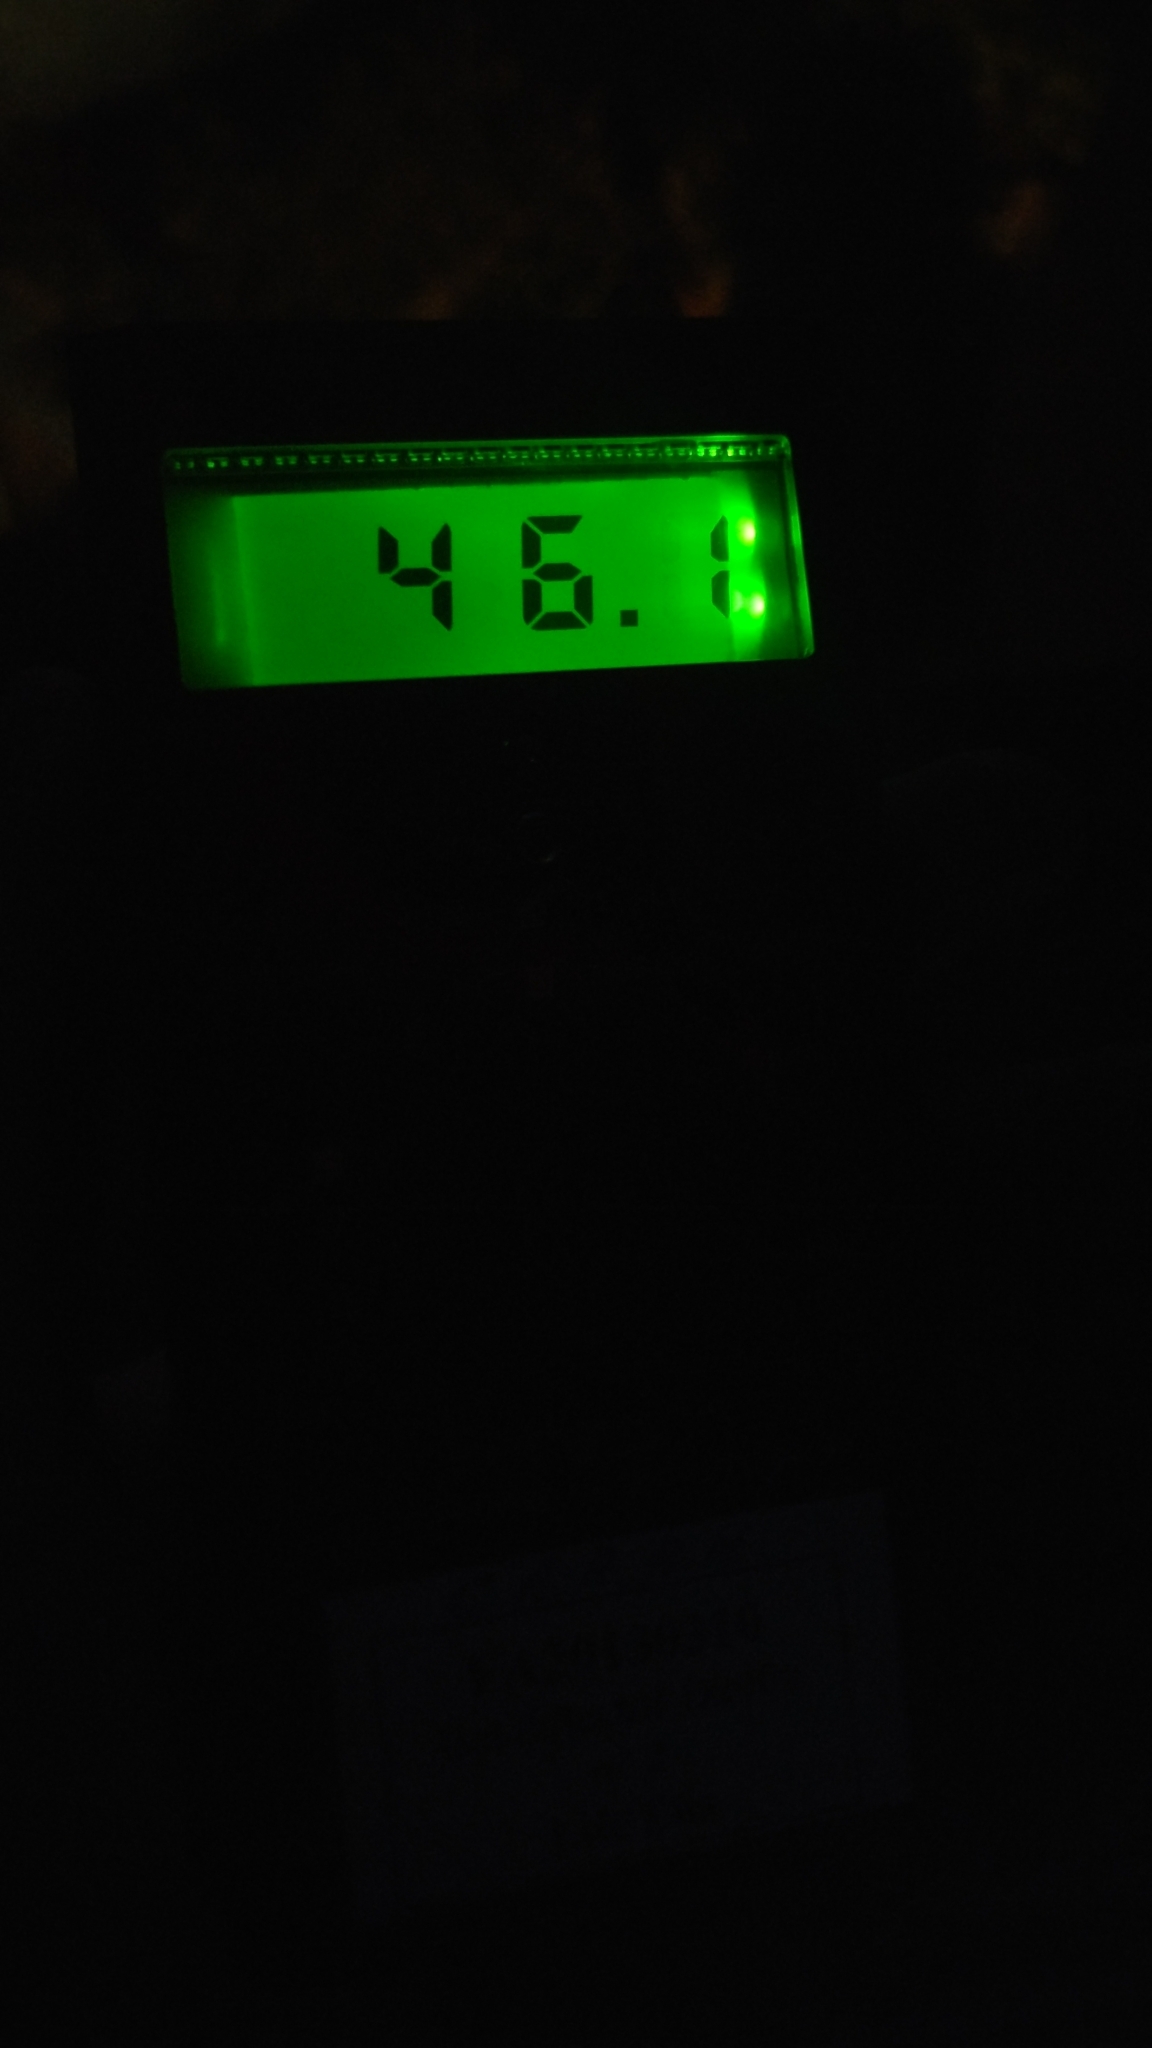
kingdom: Animalia
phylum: Chordata
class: Mammalia
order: Chiroptera
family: Vespertilionidae
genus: Pipistrellus
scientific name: Pipistrellus pipistrellus
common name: Common pipistrelle
